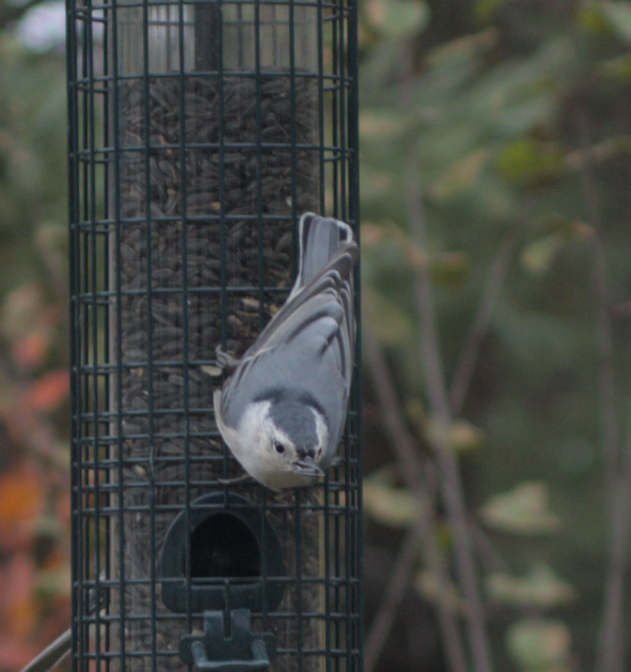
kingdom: Animalia
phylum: Chordata
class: Aves
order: Passeriformes
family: Sittidae
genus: Sitta
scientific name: Sitta carolinensis
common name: White-breasted nuthatch
